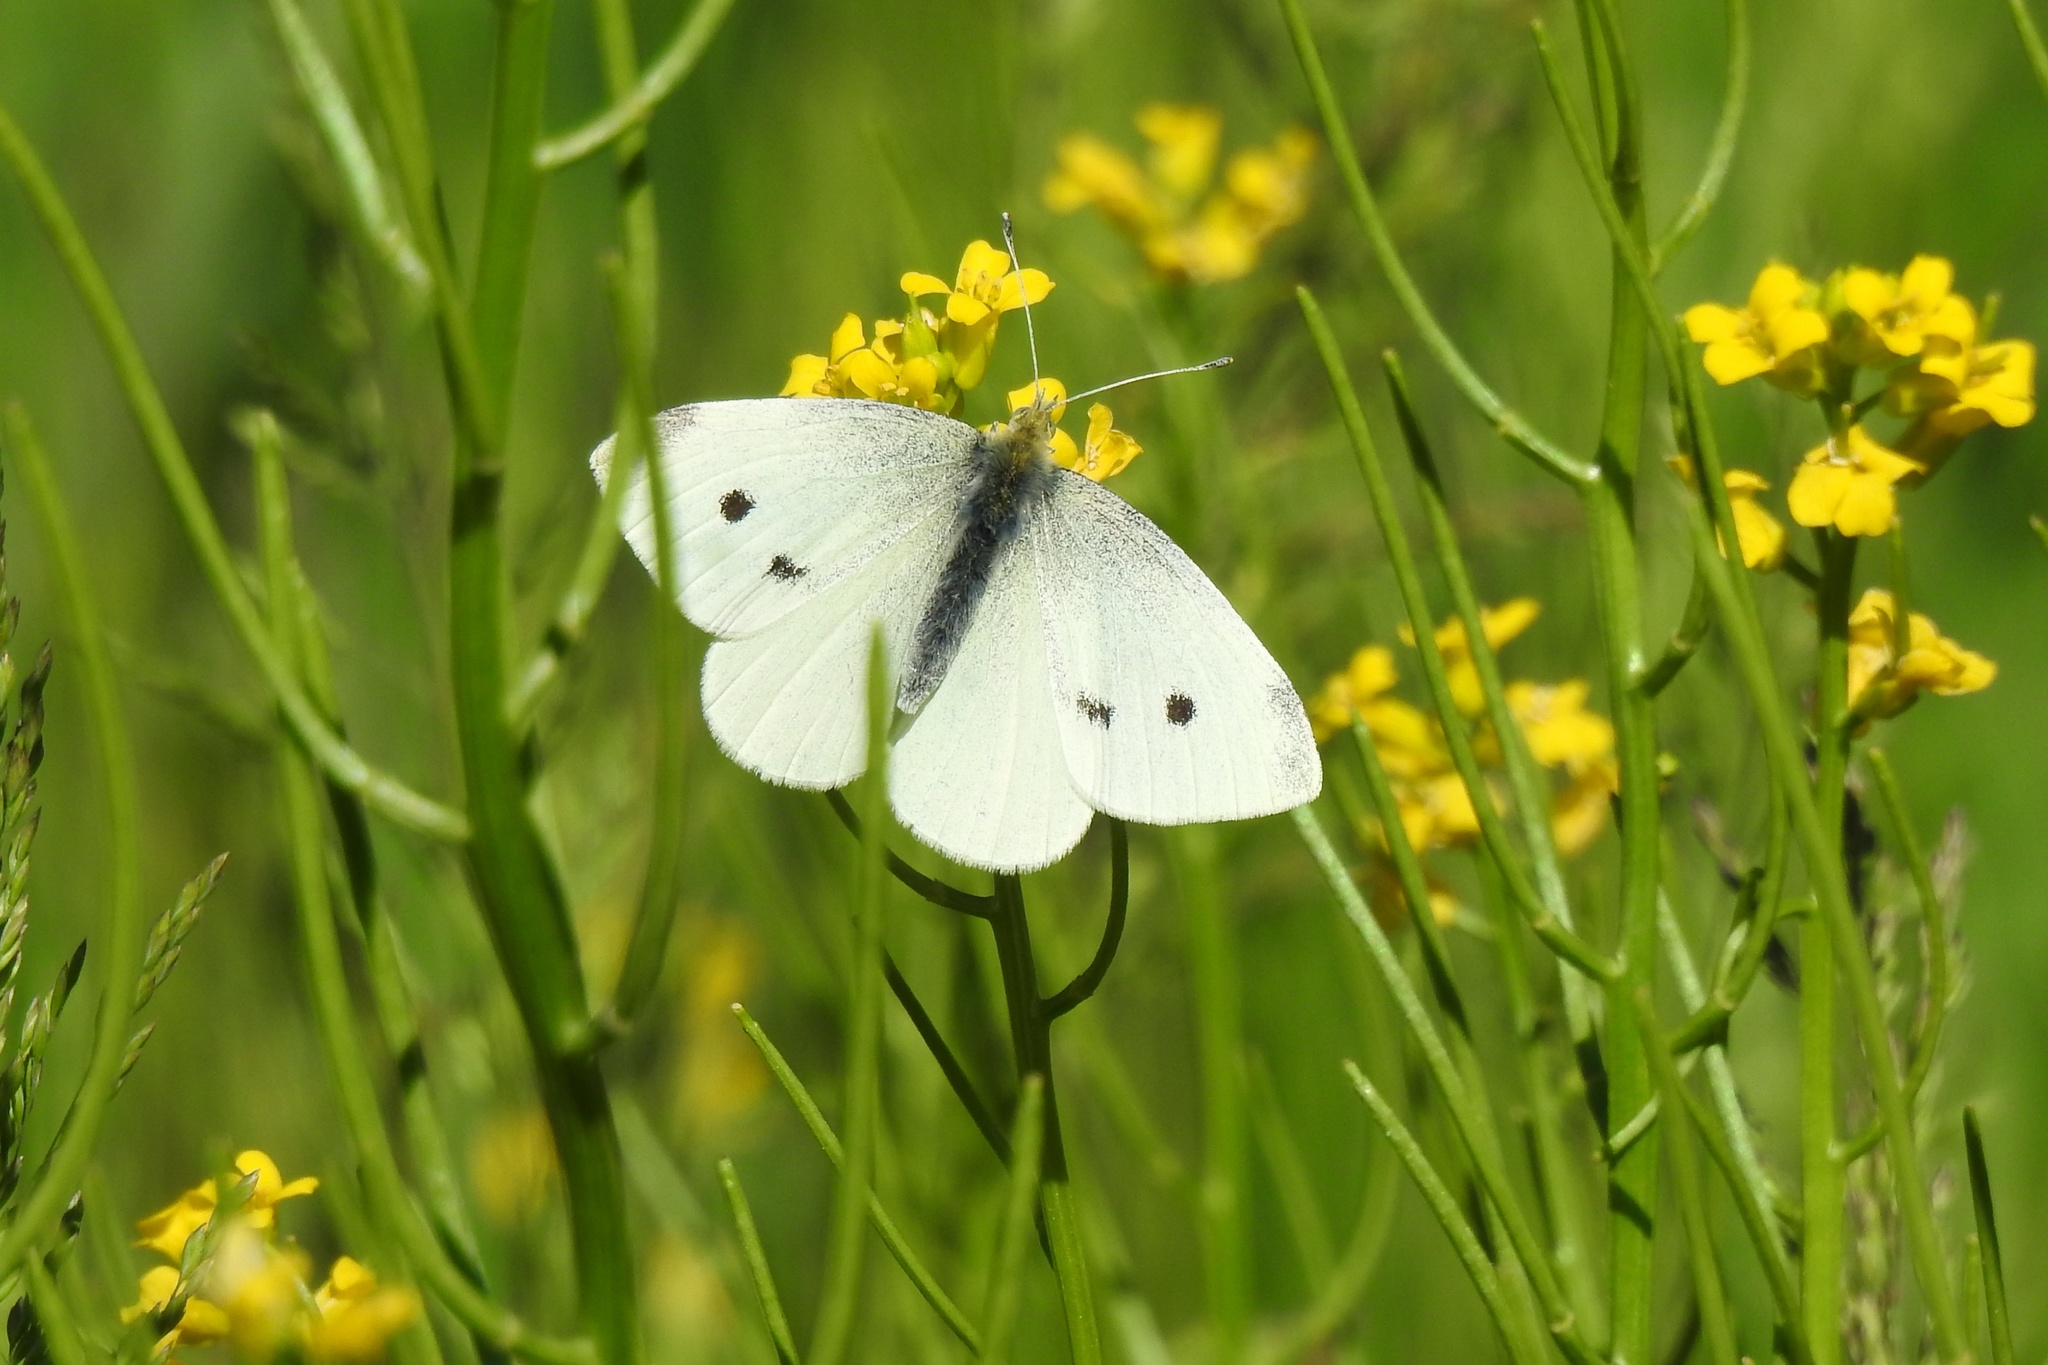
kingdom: Animalia
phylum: Arthropoda
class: Insecta
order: Lepidoptera
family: Pieridae
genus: Pieris
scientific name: Pieris rapae
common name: Small white
